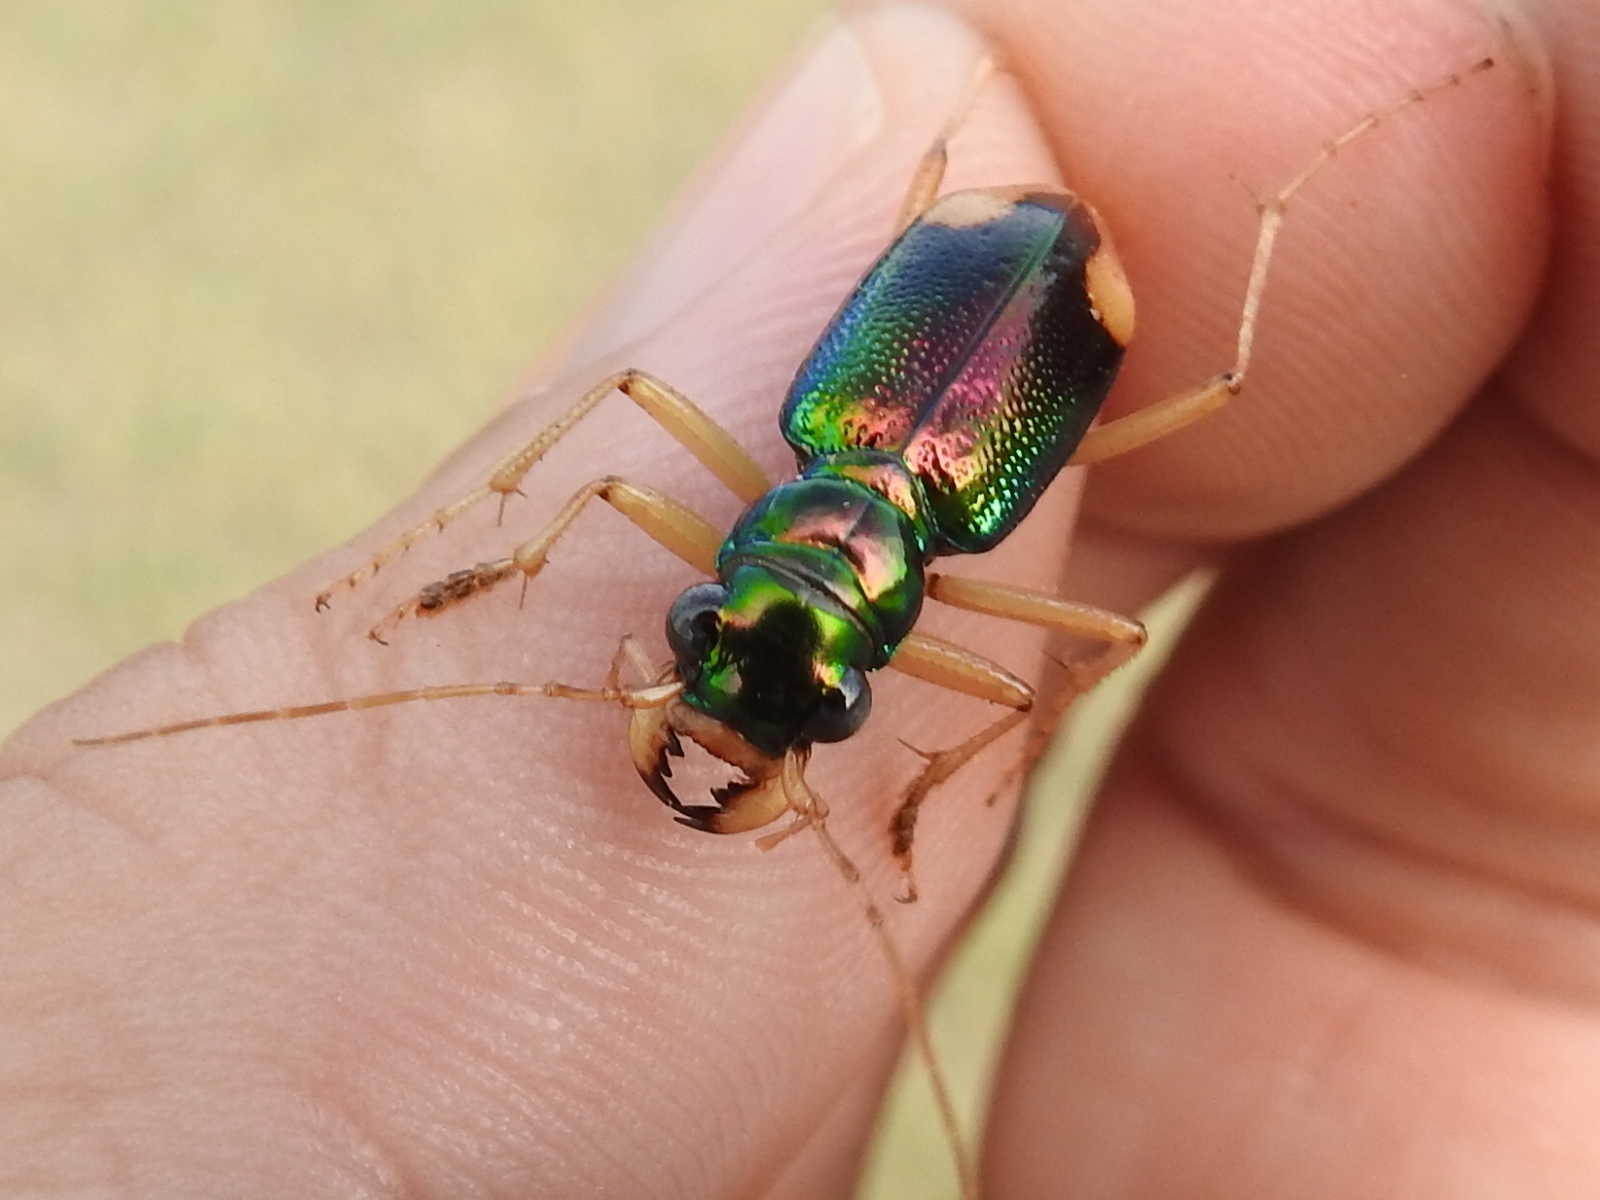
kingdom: Animalia
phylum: Arthropoda
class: Insecta
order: Coleoptera
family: Carabidae
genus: Tetracha
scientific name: Tetracha carolina
